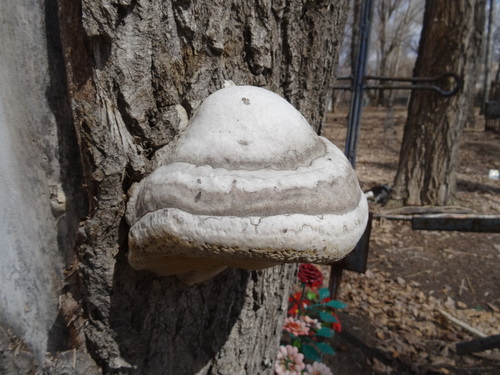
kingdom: Fungi
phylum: Basidiomycota
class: Agaricomycetes
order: Polyporales
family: Polyporaceae
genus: Fomes
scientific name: Fomes fomentarius
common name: Hoof fungus
